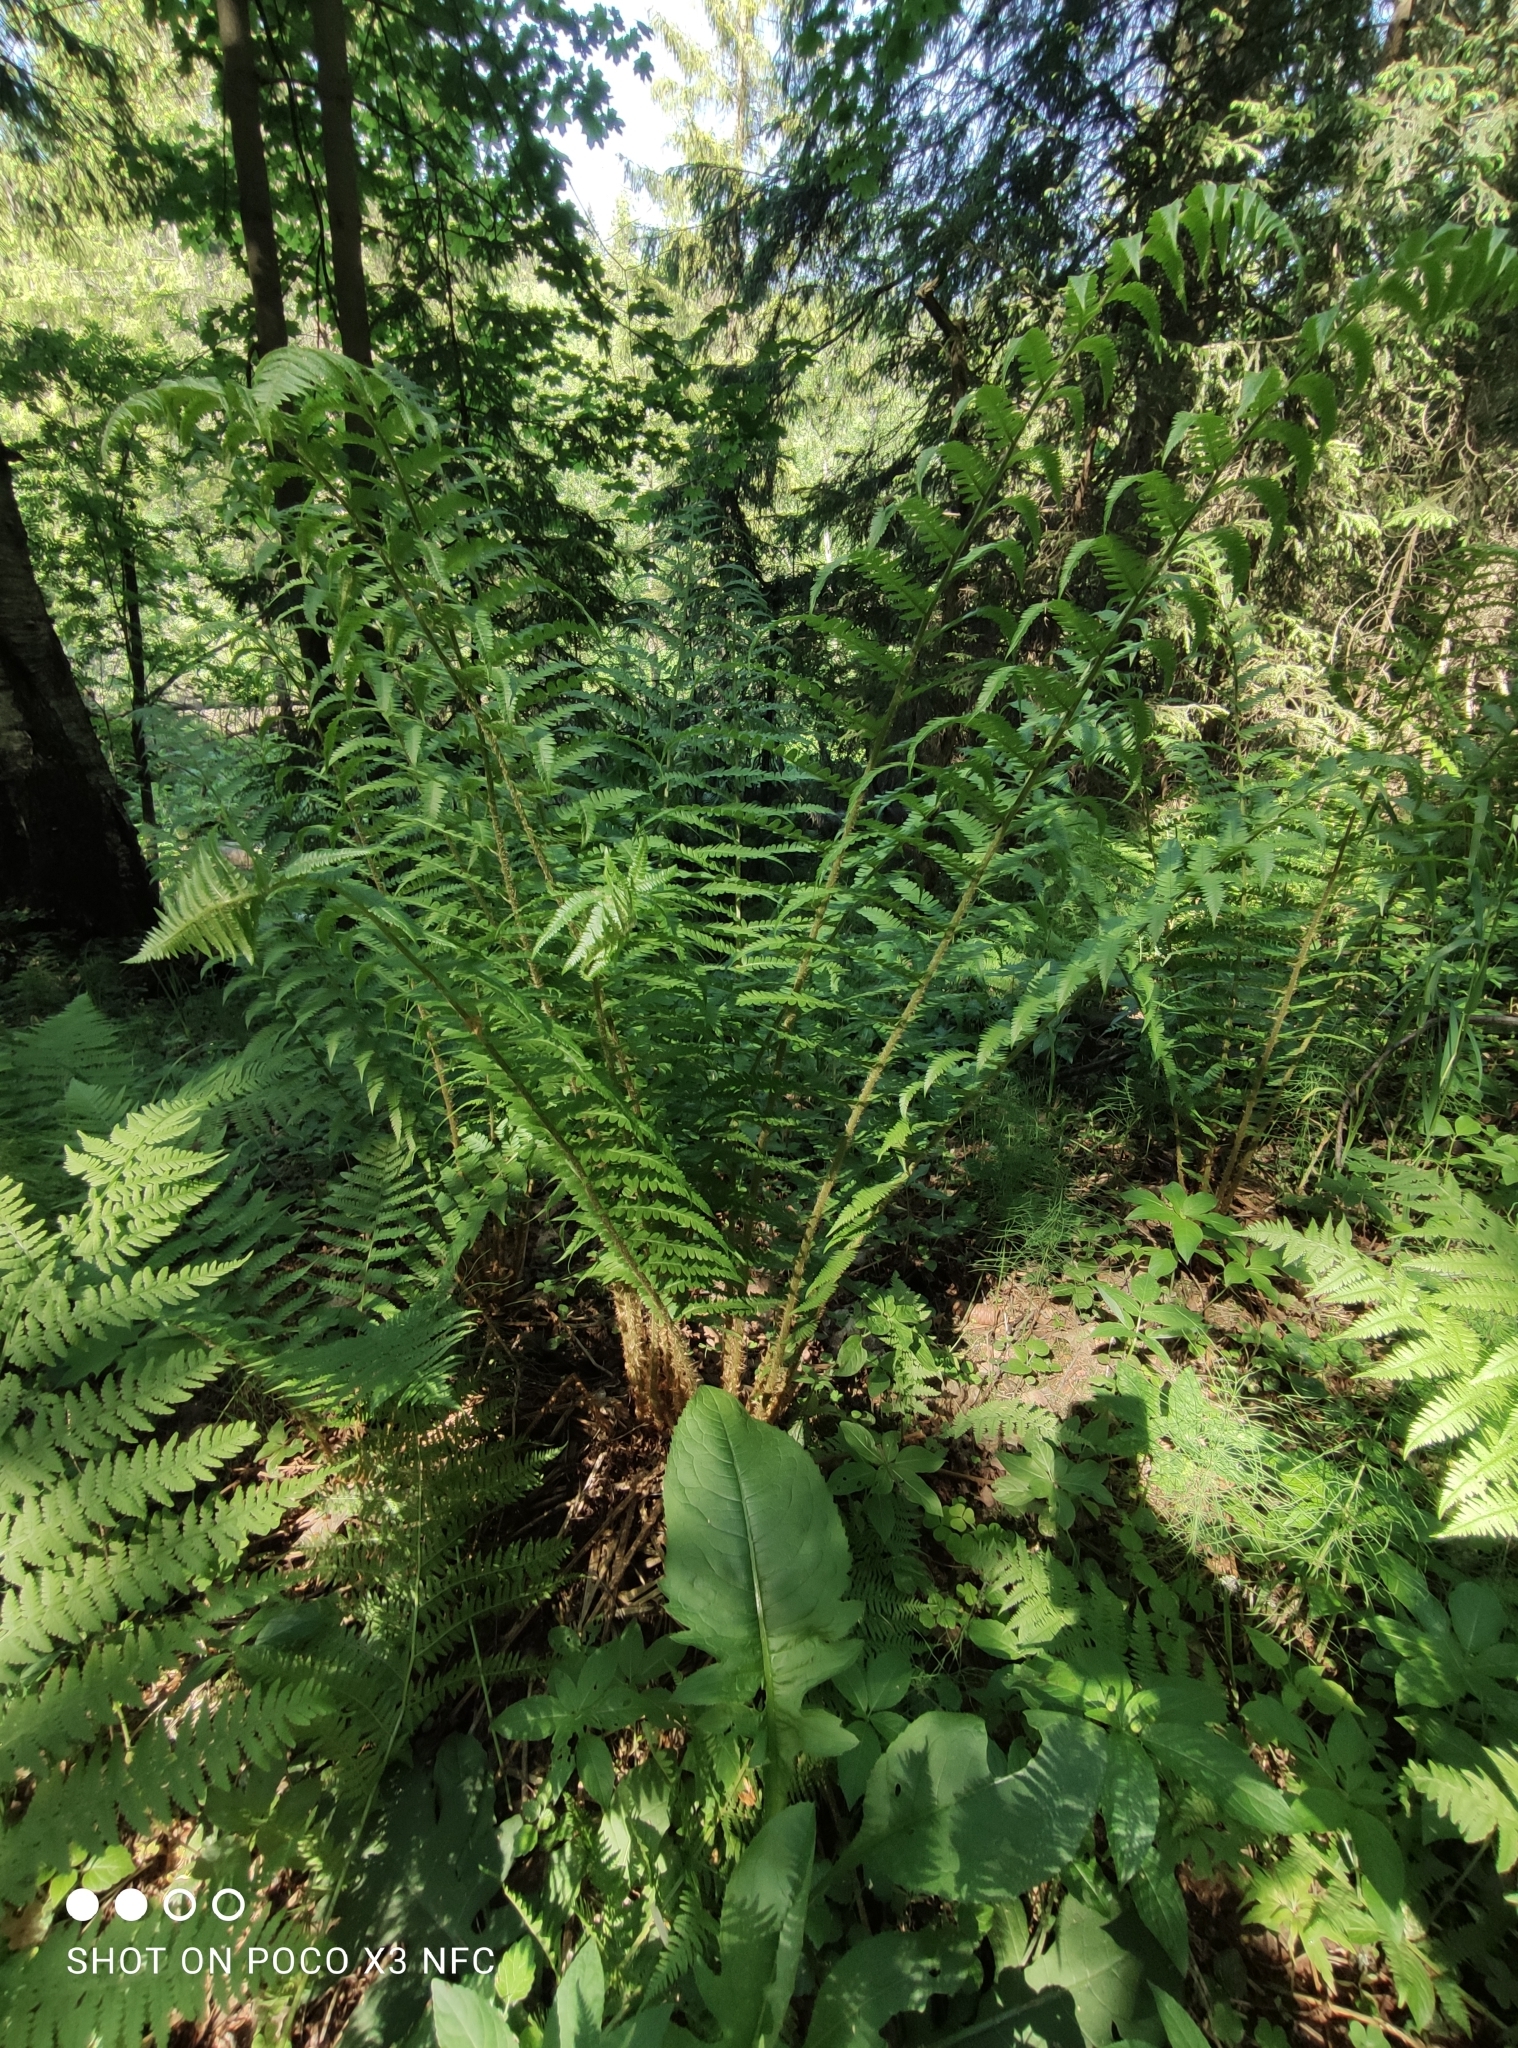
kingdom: Plantae
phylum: Tracheophyta
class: Polypodiopsida
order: Polypodiales
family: Dryopteridaceae
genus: Dryopteris
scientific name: Dryopteris filix-mas
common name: Male fern
